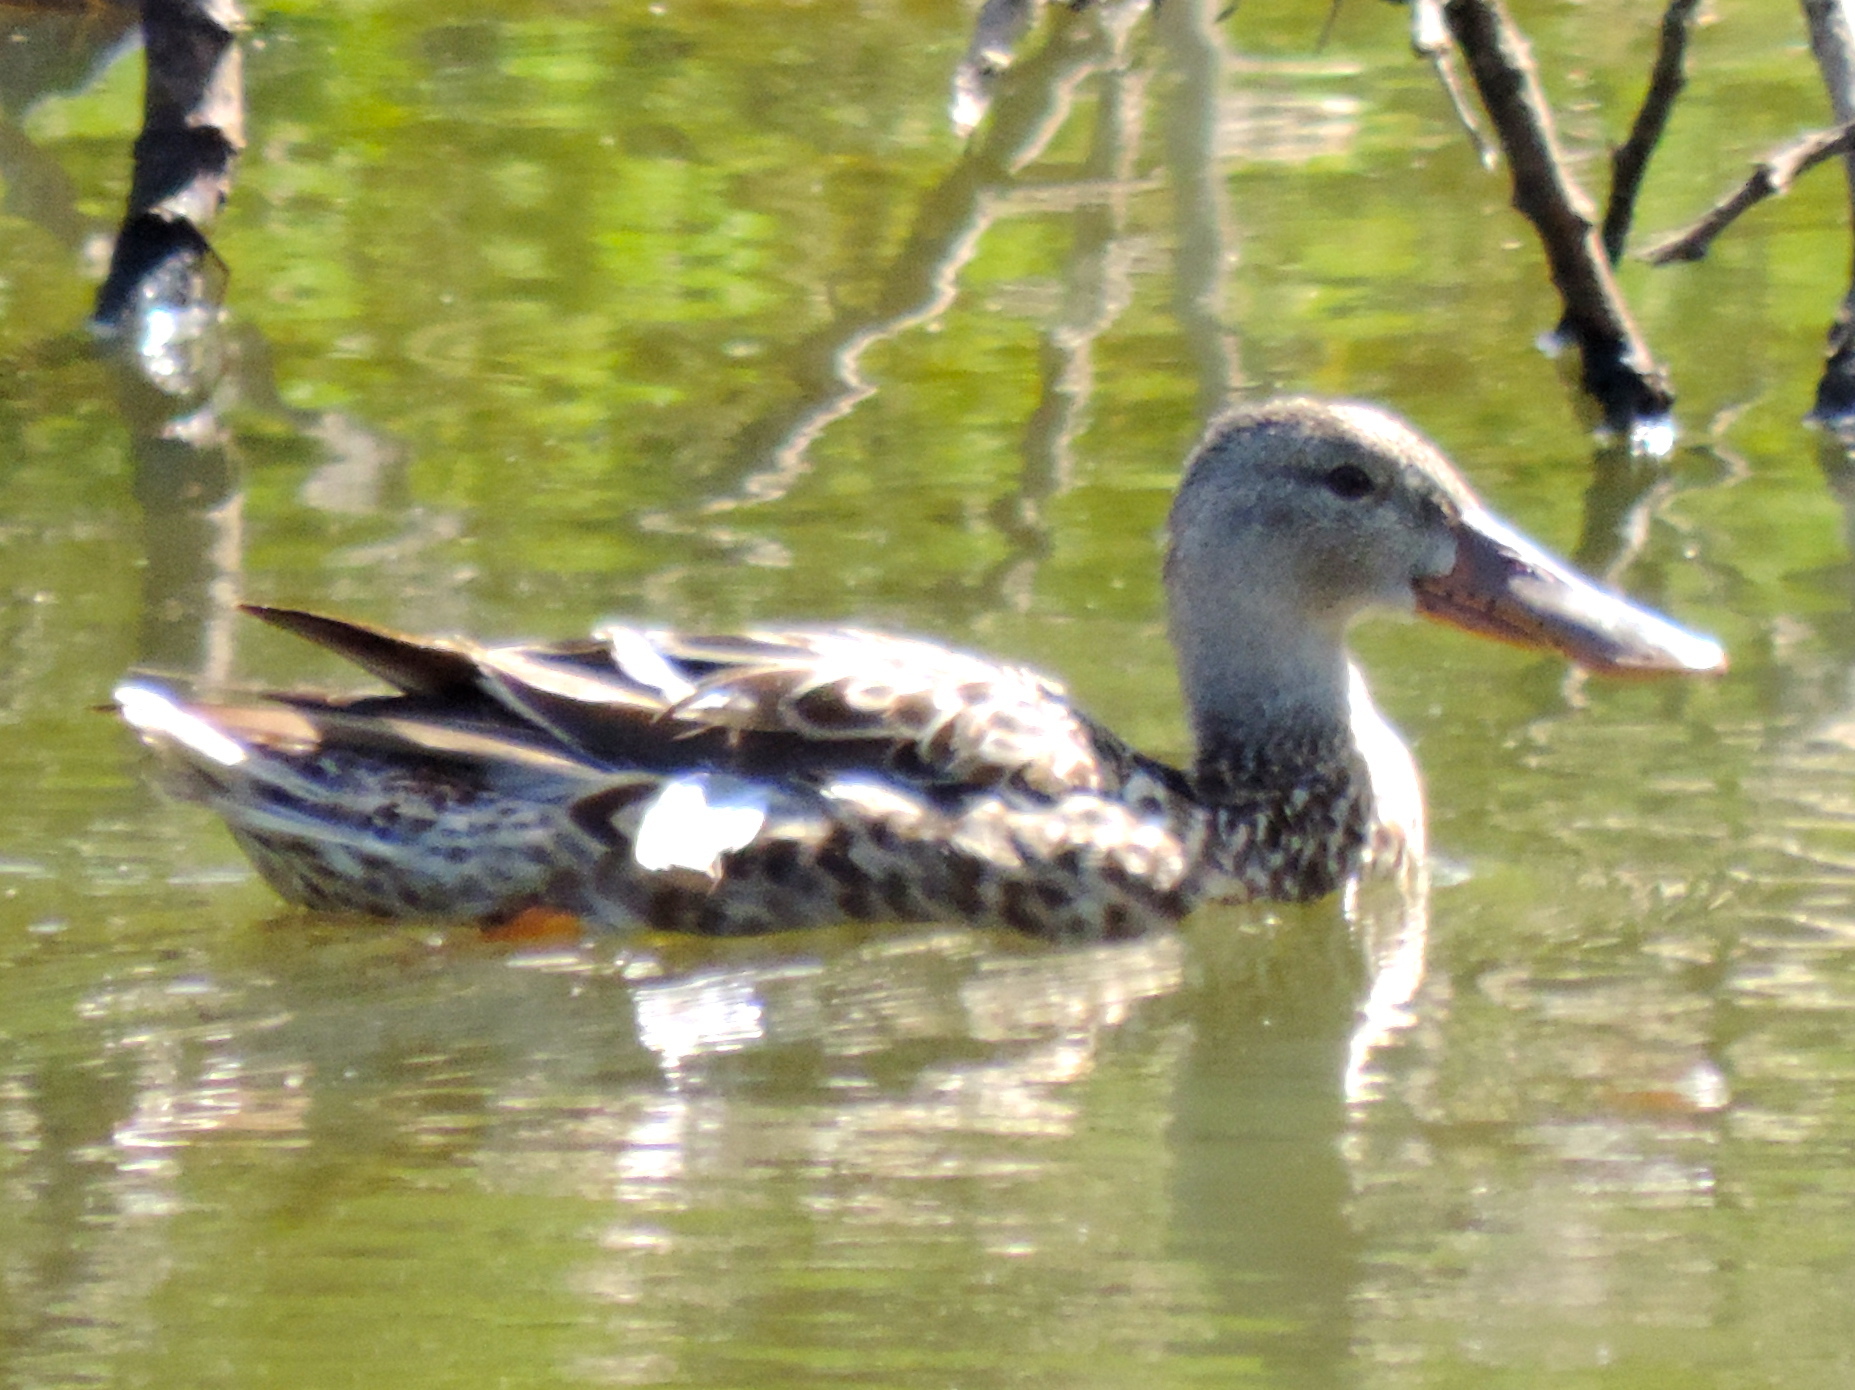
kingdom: Animalia
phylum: Chordata
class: Aves
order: Anseriformes
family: Anatidae
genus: Spatula
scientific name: Spatula clypeata
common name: Northern shoveler
